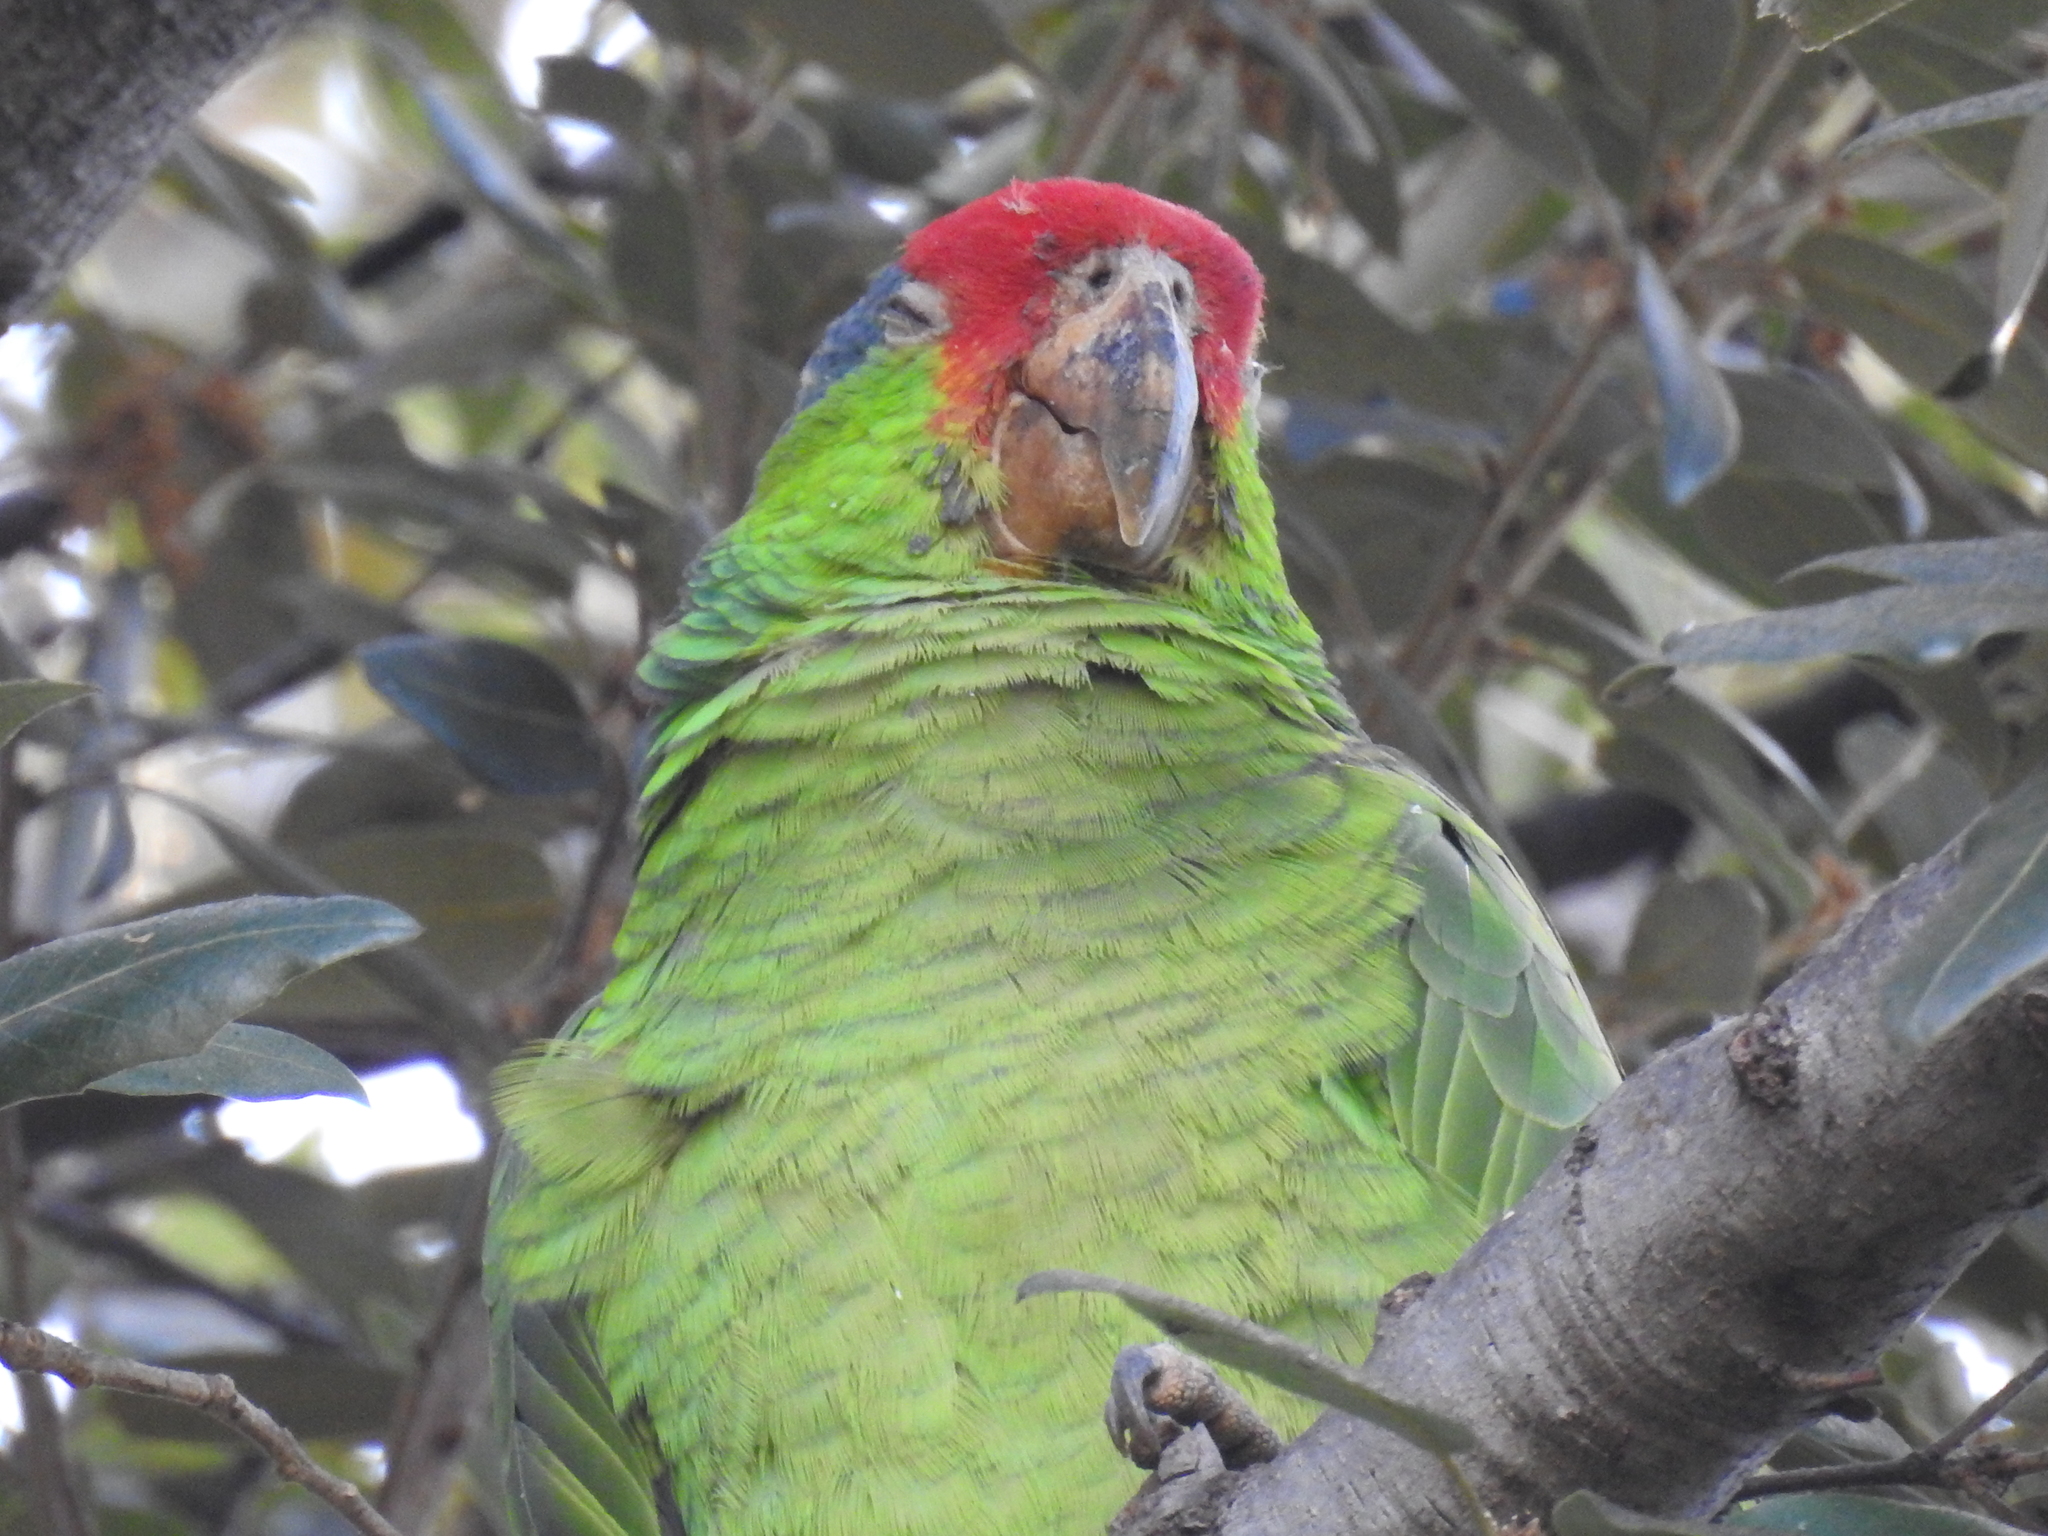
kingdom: Animalia
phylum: Chordata
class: Aves
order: Psittaciformes
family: Psittacidae
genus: Amazona
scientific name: Amazona viridigenalis
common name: Red-crowned amazon
